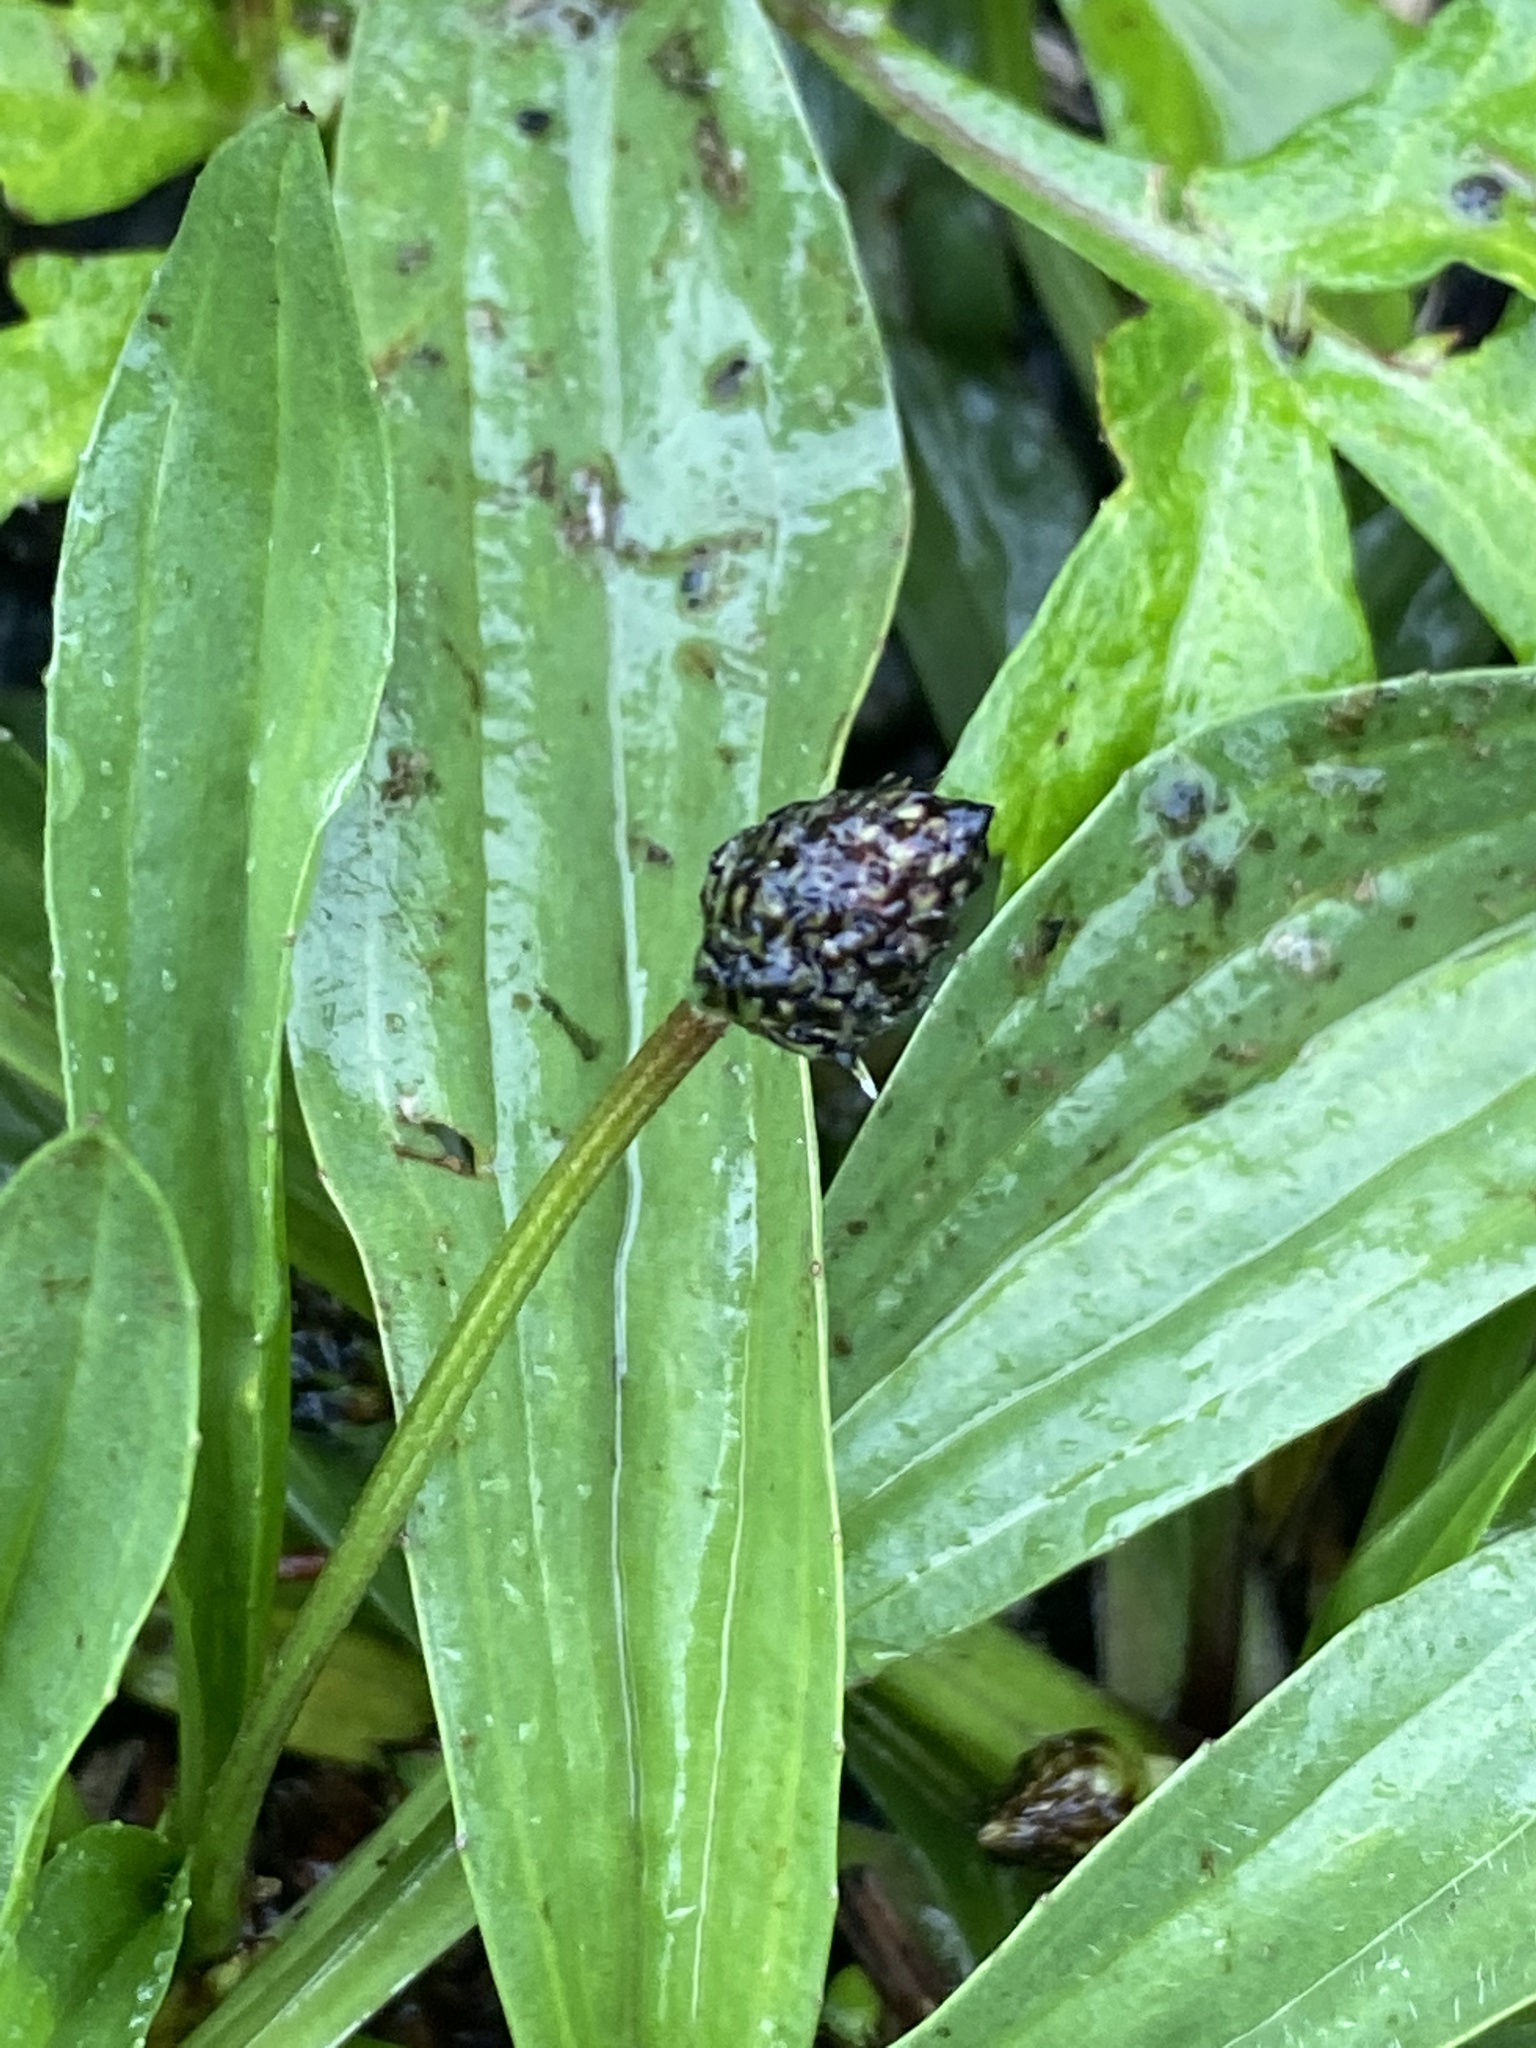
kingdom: Plantae
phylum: Tracheophyta
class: Magnoliopsida
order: Lamiales
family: Plantaginaceae
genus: Plantago
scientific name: Plantago lanceolata
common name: Ribwort plantain
